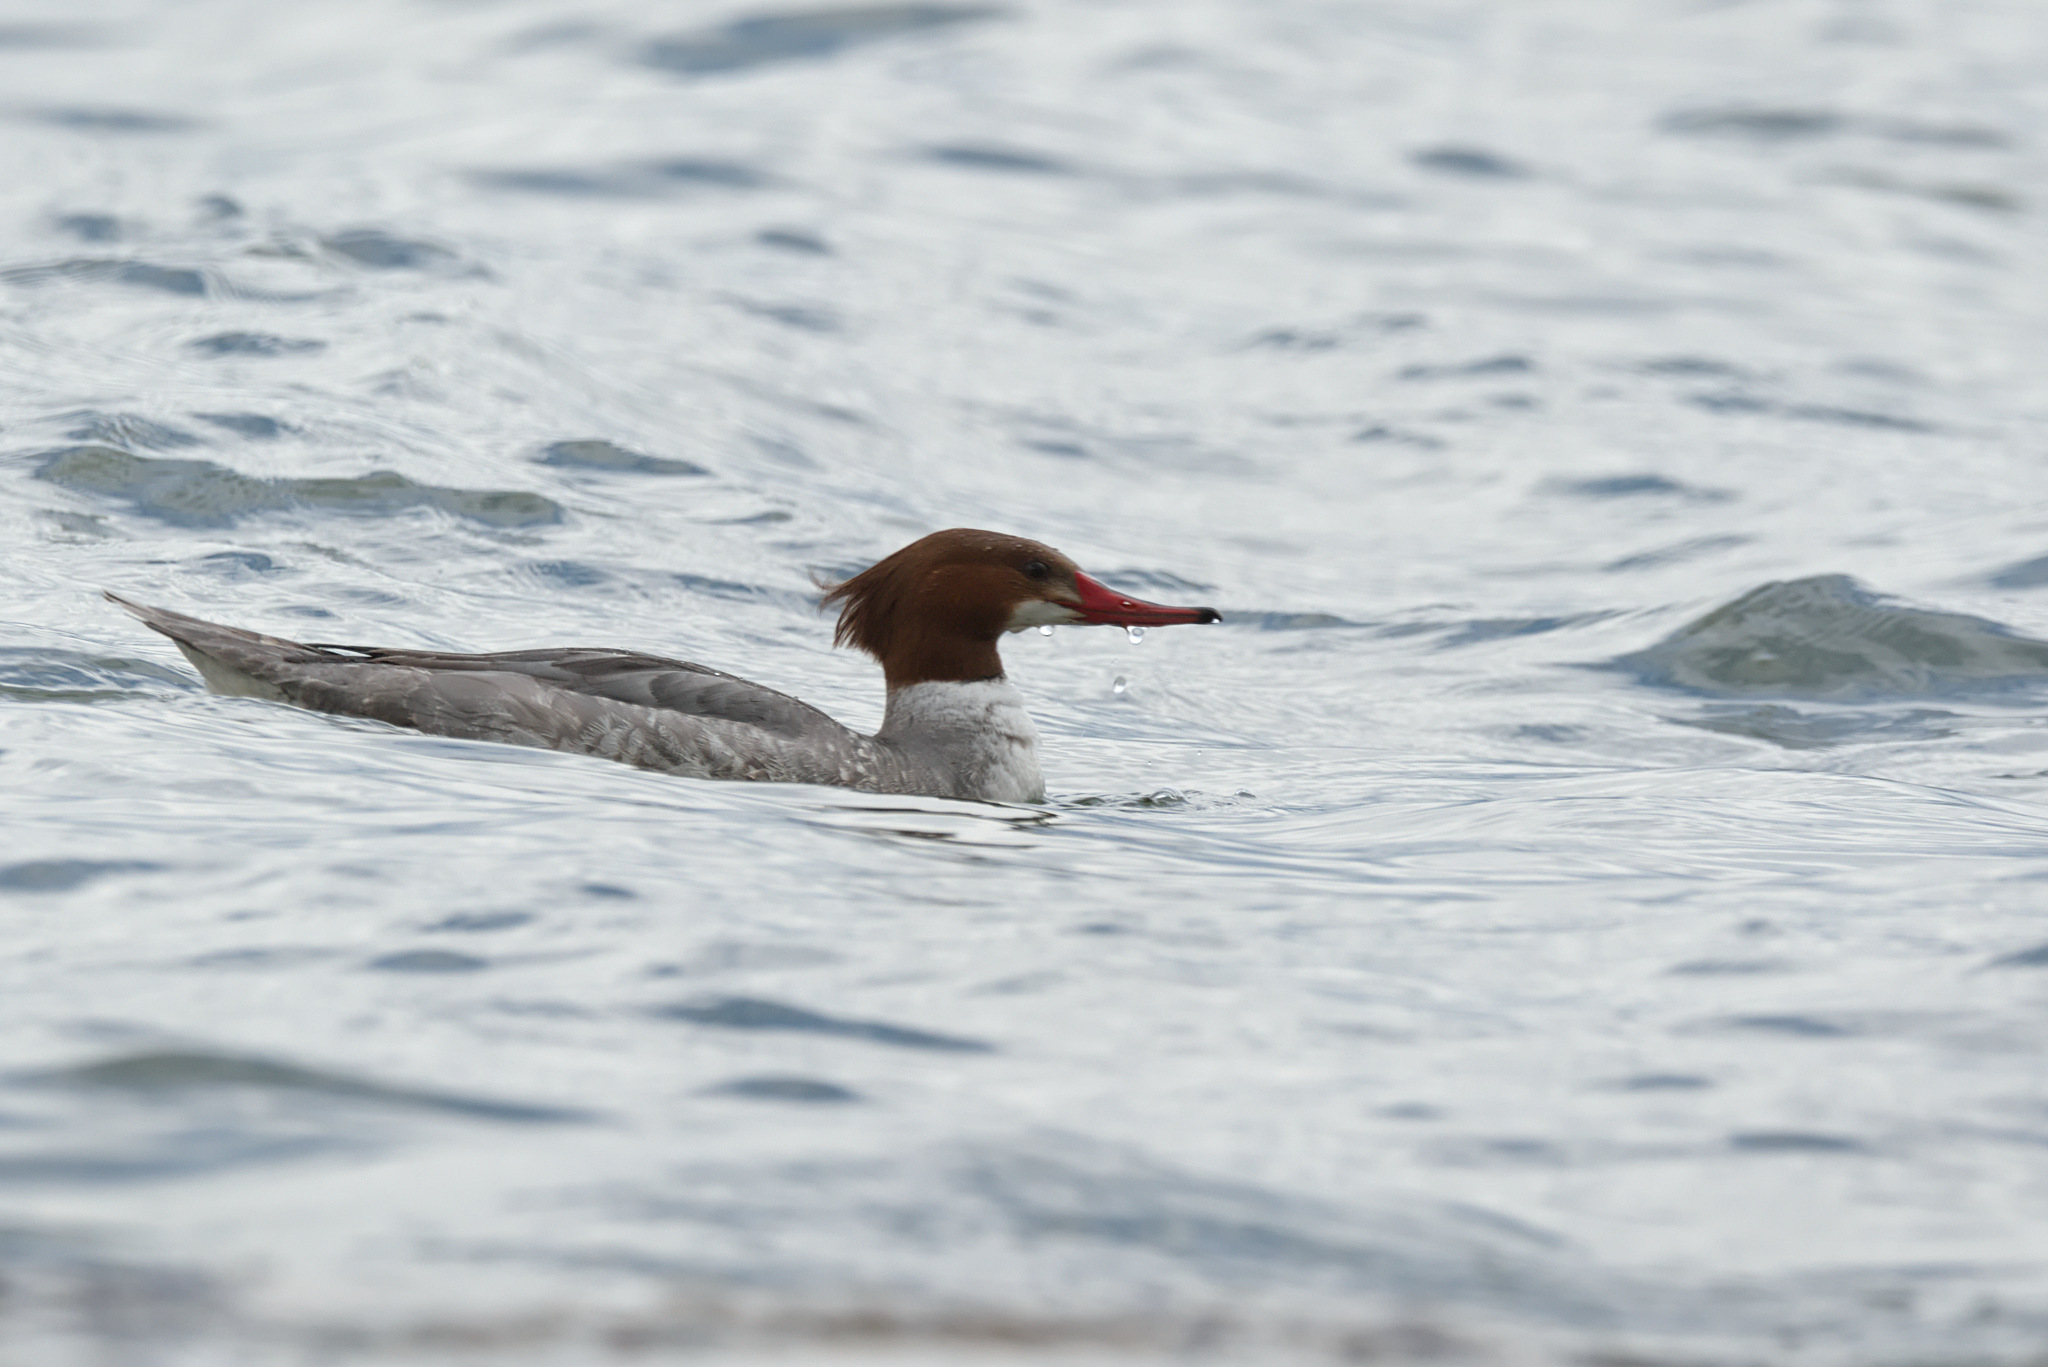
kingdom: Animalia
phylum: Chordata
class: Aves
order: Anseriformes
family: Anatidae
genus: Mergus
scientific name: Mergus merganser
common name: Common merganser
